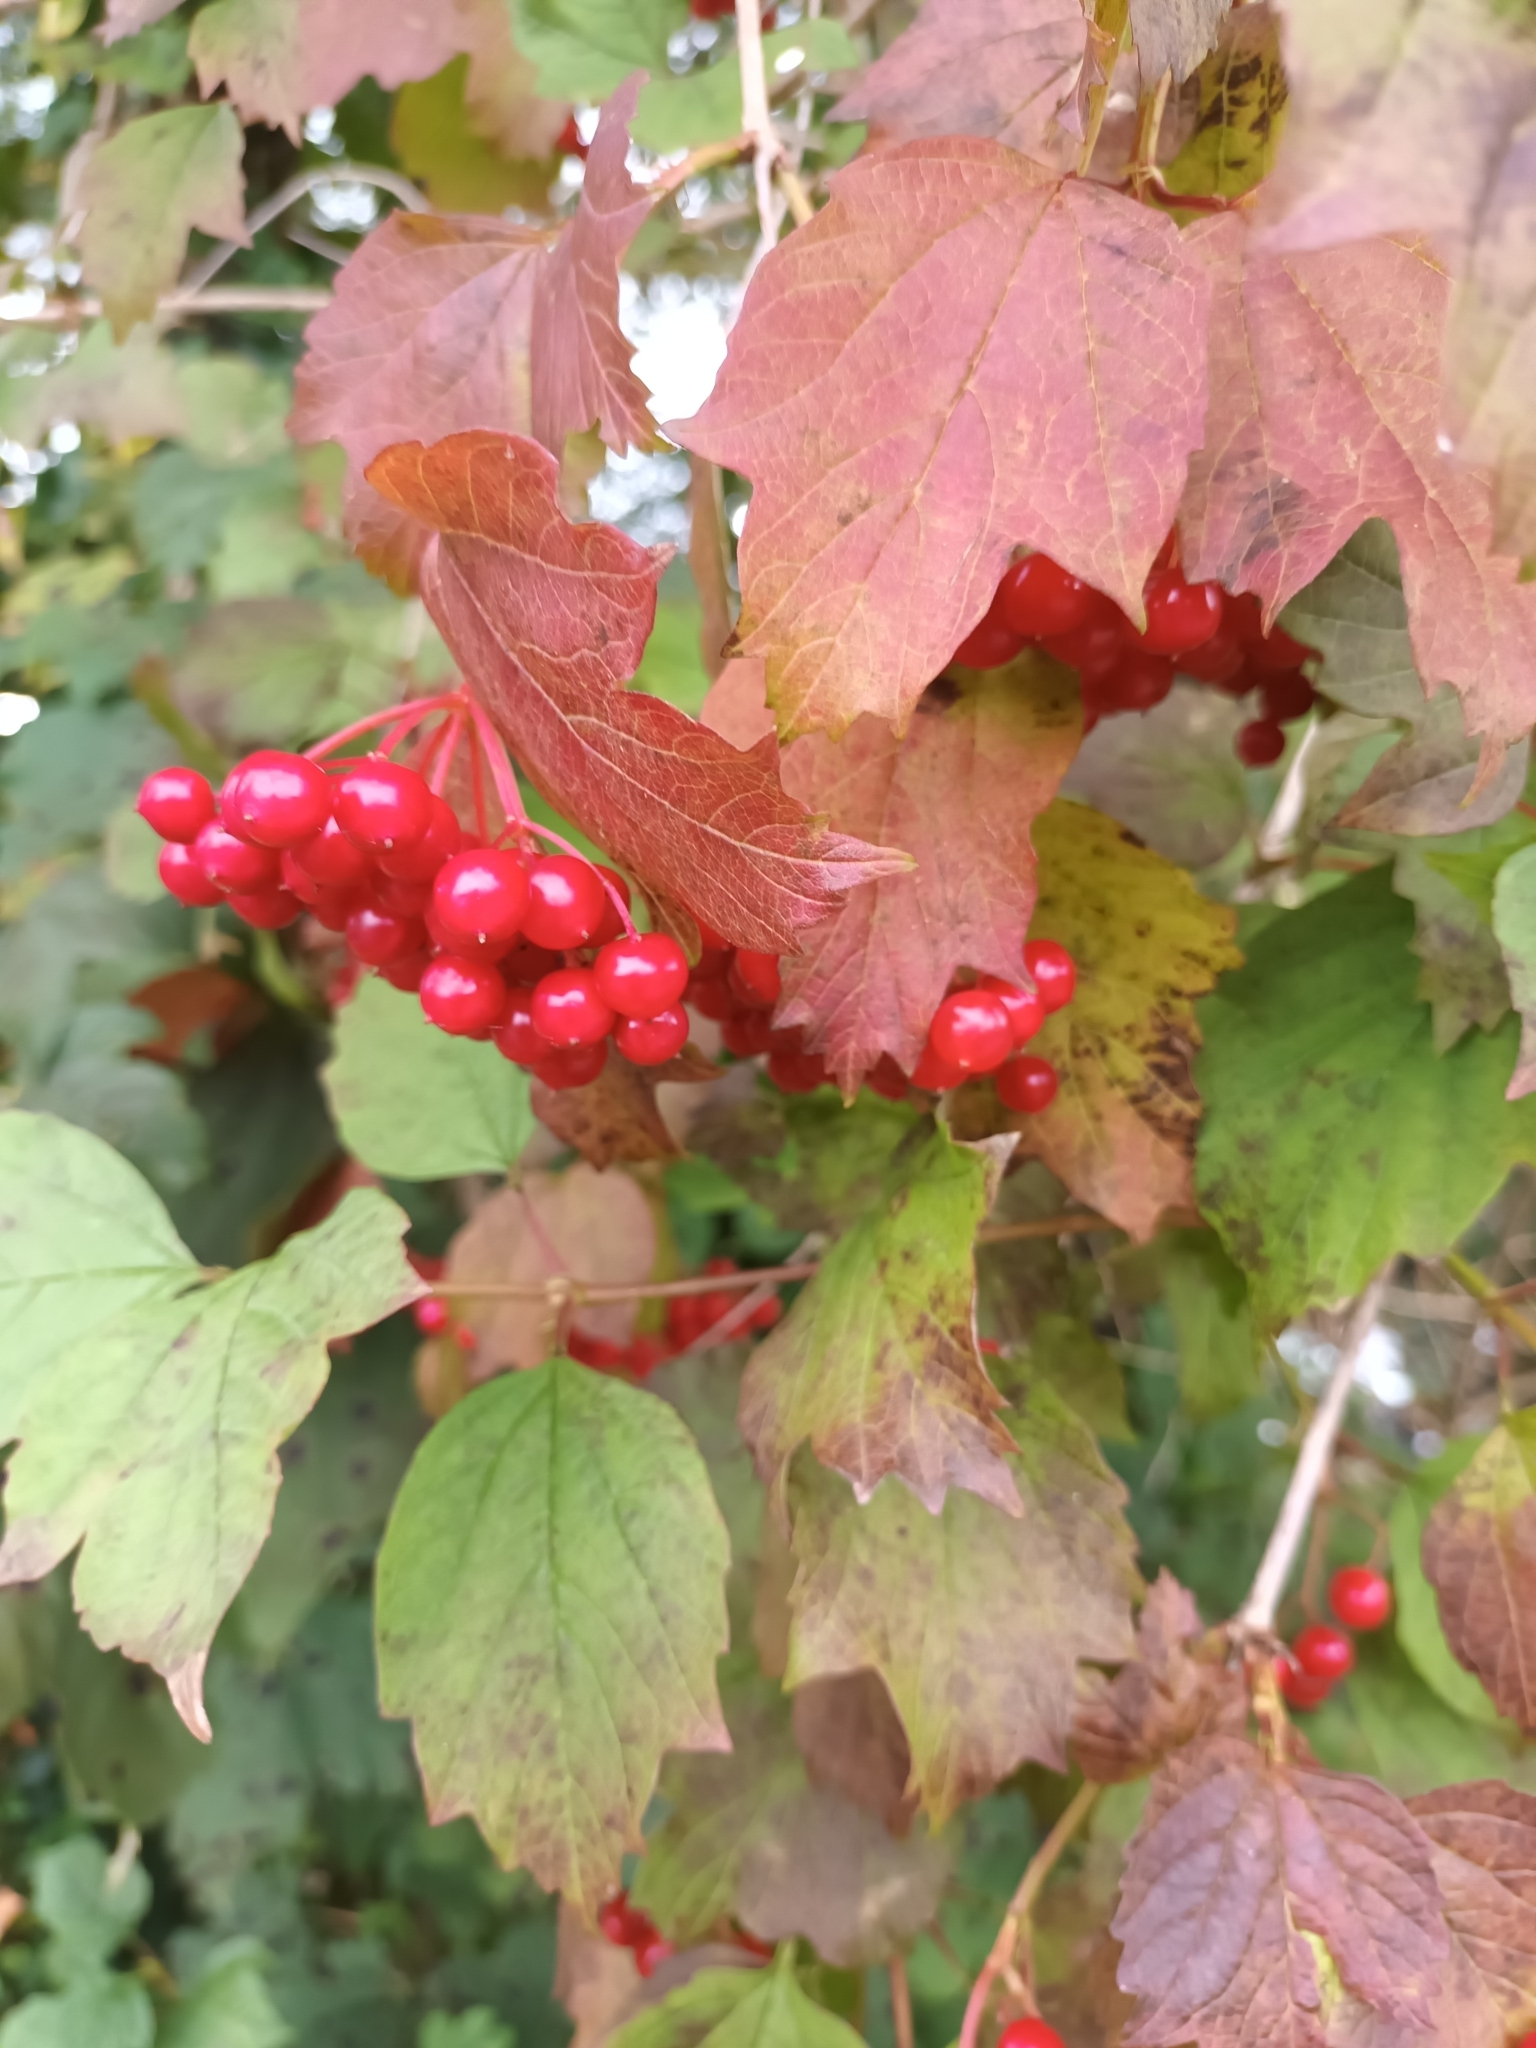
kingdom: Plantae
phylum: Tracheophyta
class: Magnoliopsida
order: Dipsacales
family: Viburnaceae
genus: Viburnum
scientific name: Viburnum opulus
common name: Guelder-rose
